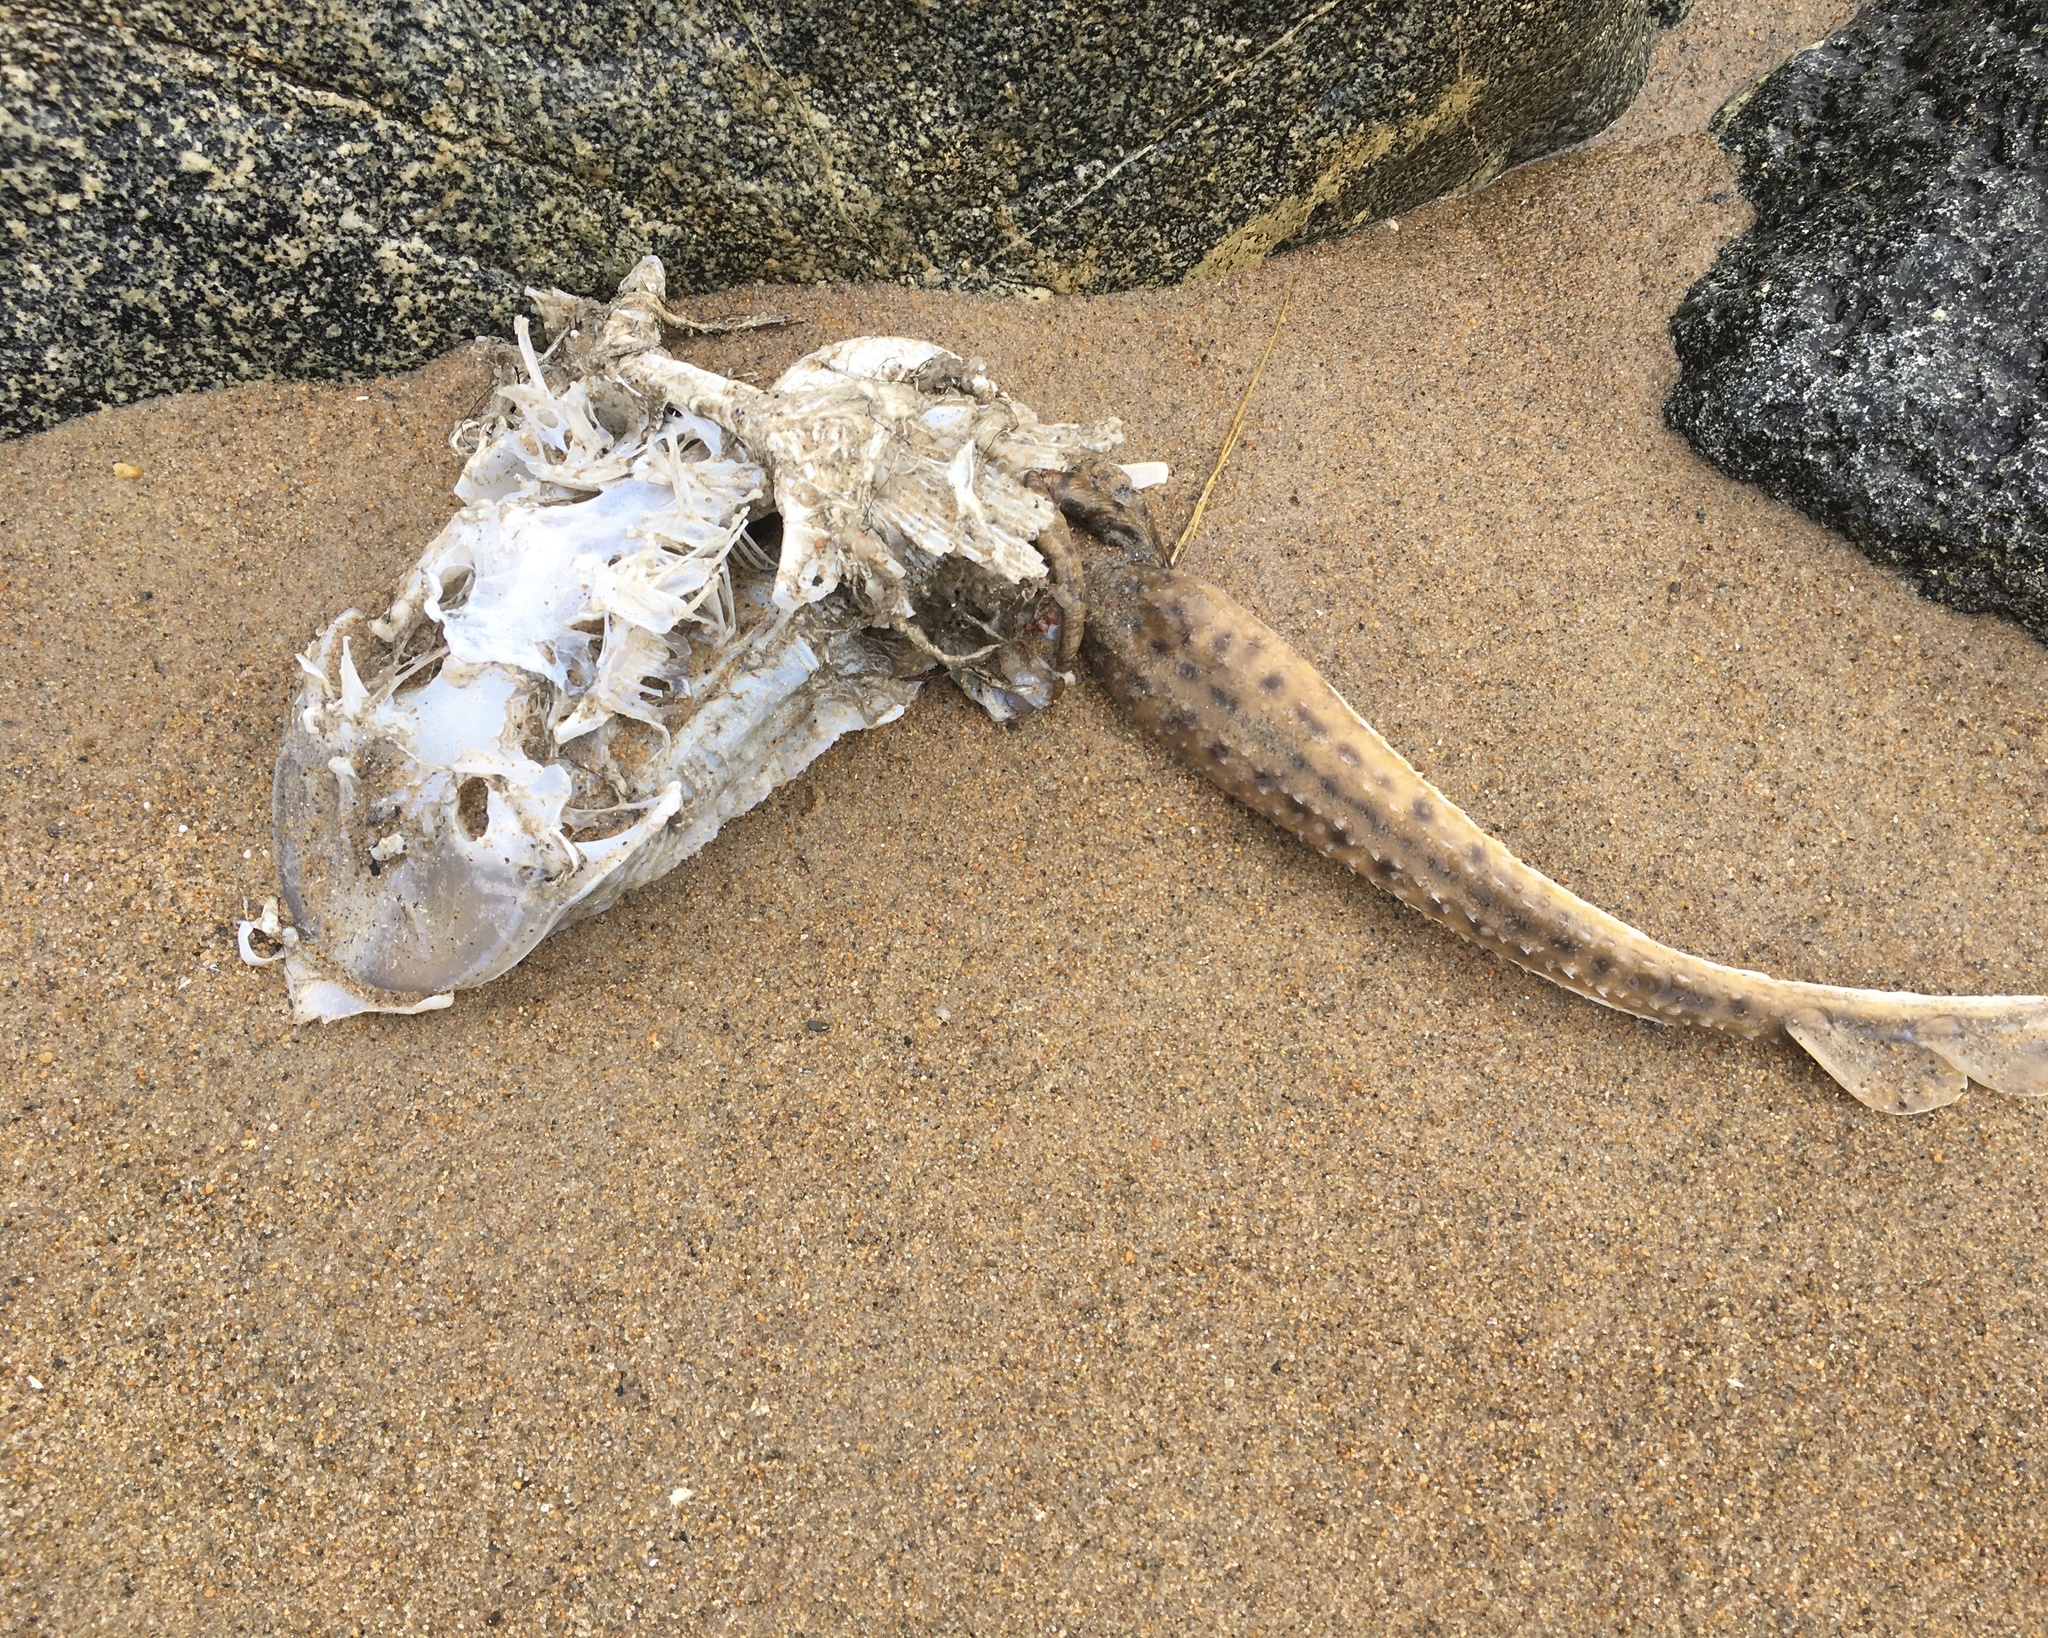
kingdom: Animalia
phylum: Chordata
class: Elasmobranchii
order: Rajiformes
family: Rajidae
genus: Leucoraja
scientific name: Leucoraja erinacea
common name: Little skate
